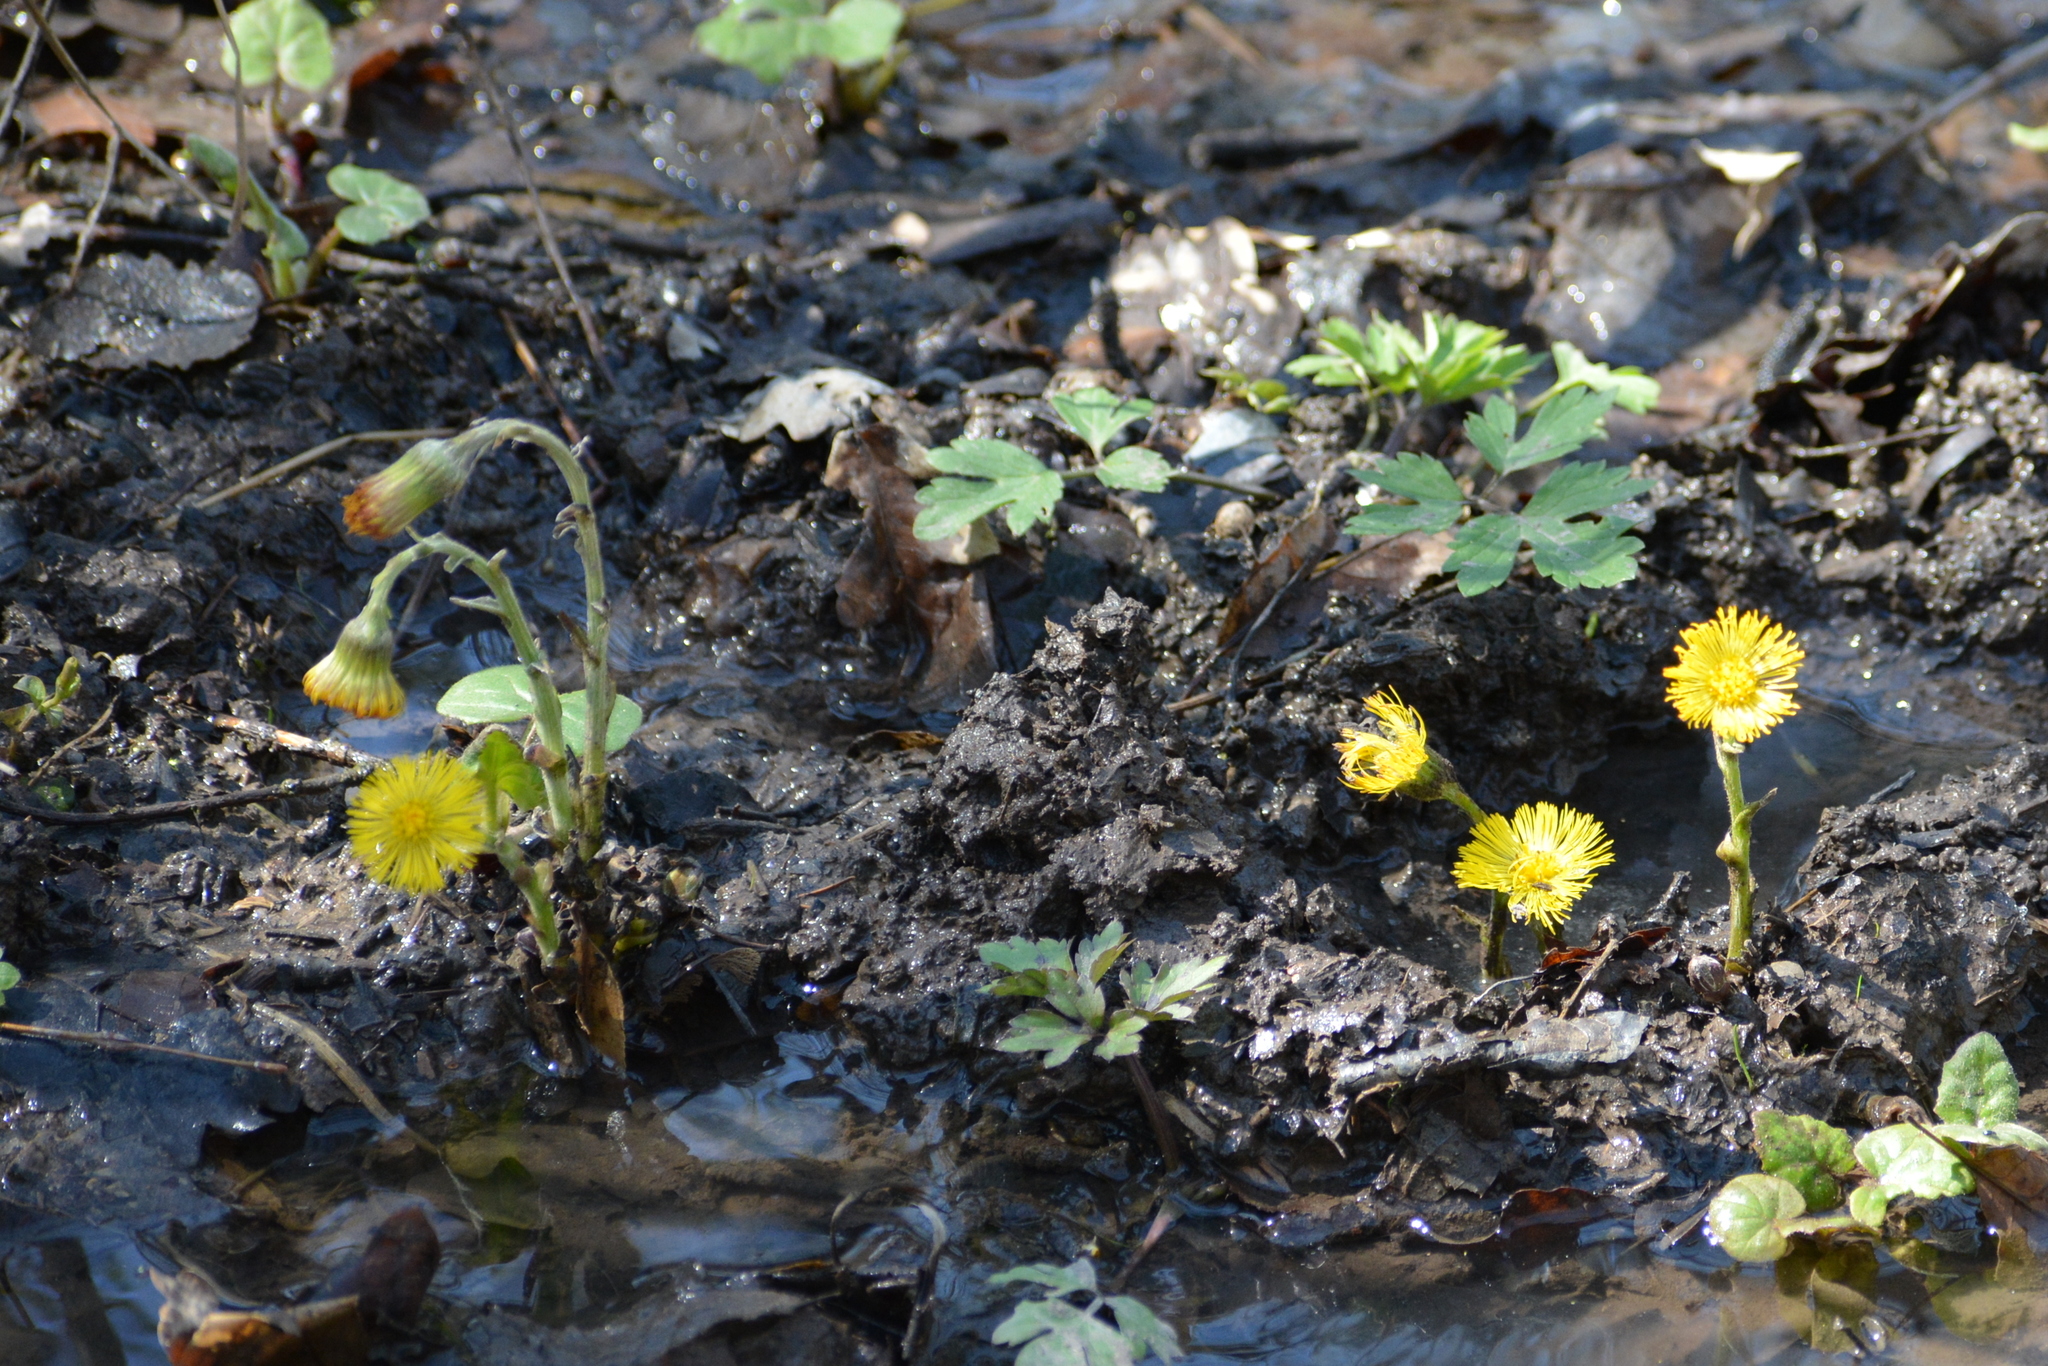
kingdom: Plantae
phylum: Tracheophyta
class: Magnoliopsida
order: Asterales
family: Asteraceae
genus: Tussilago
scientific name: Tussilago farfara
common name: Coltsfoot
